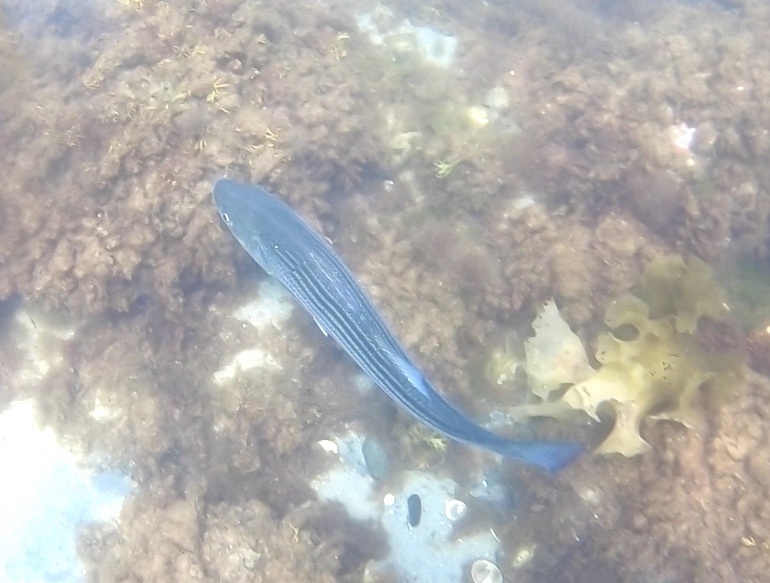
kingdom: Animalia
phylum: Chordata
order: Perciformes
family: Moronidae
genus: Morone
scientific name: Morone saxatilis
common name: Striped bass
